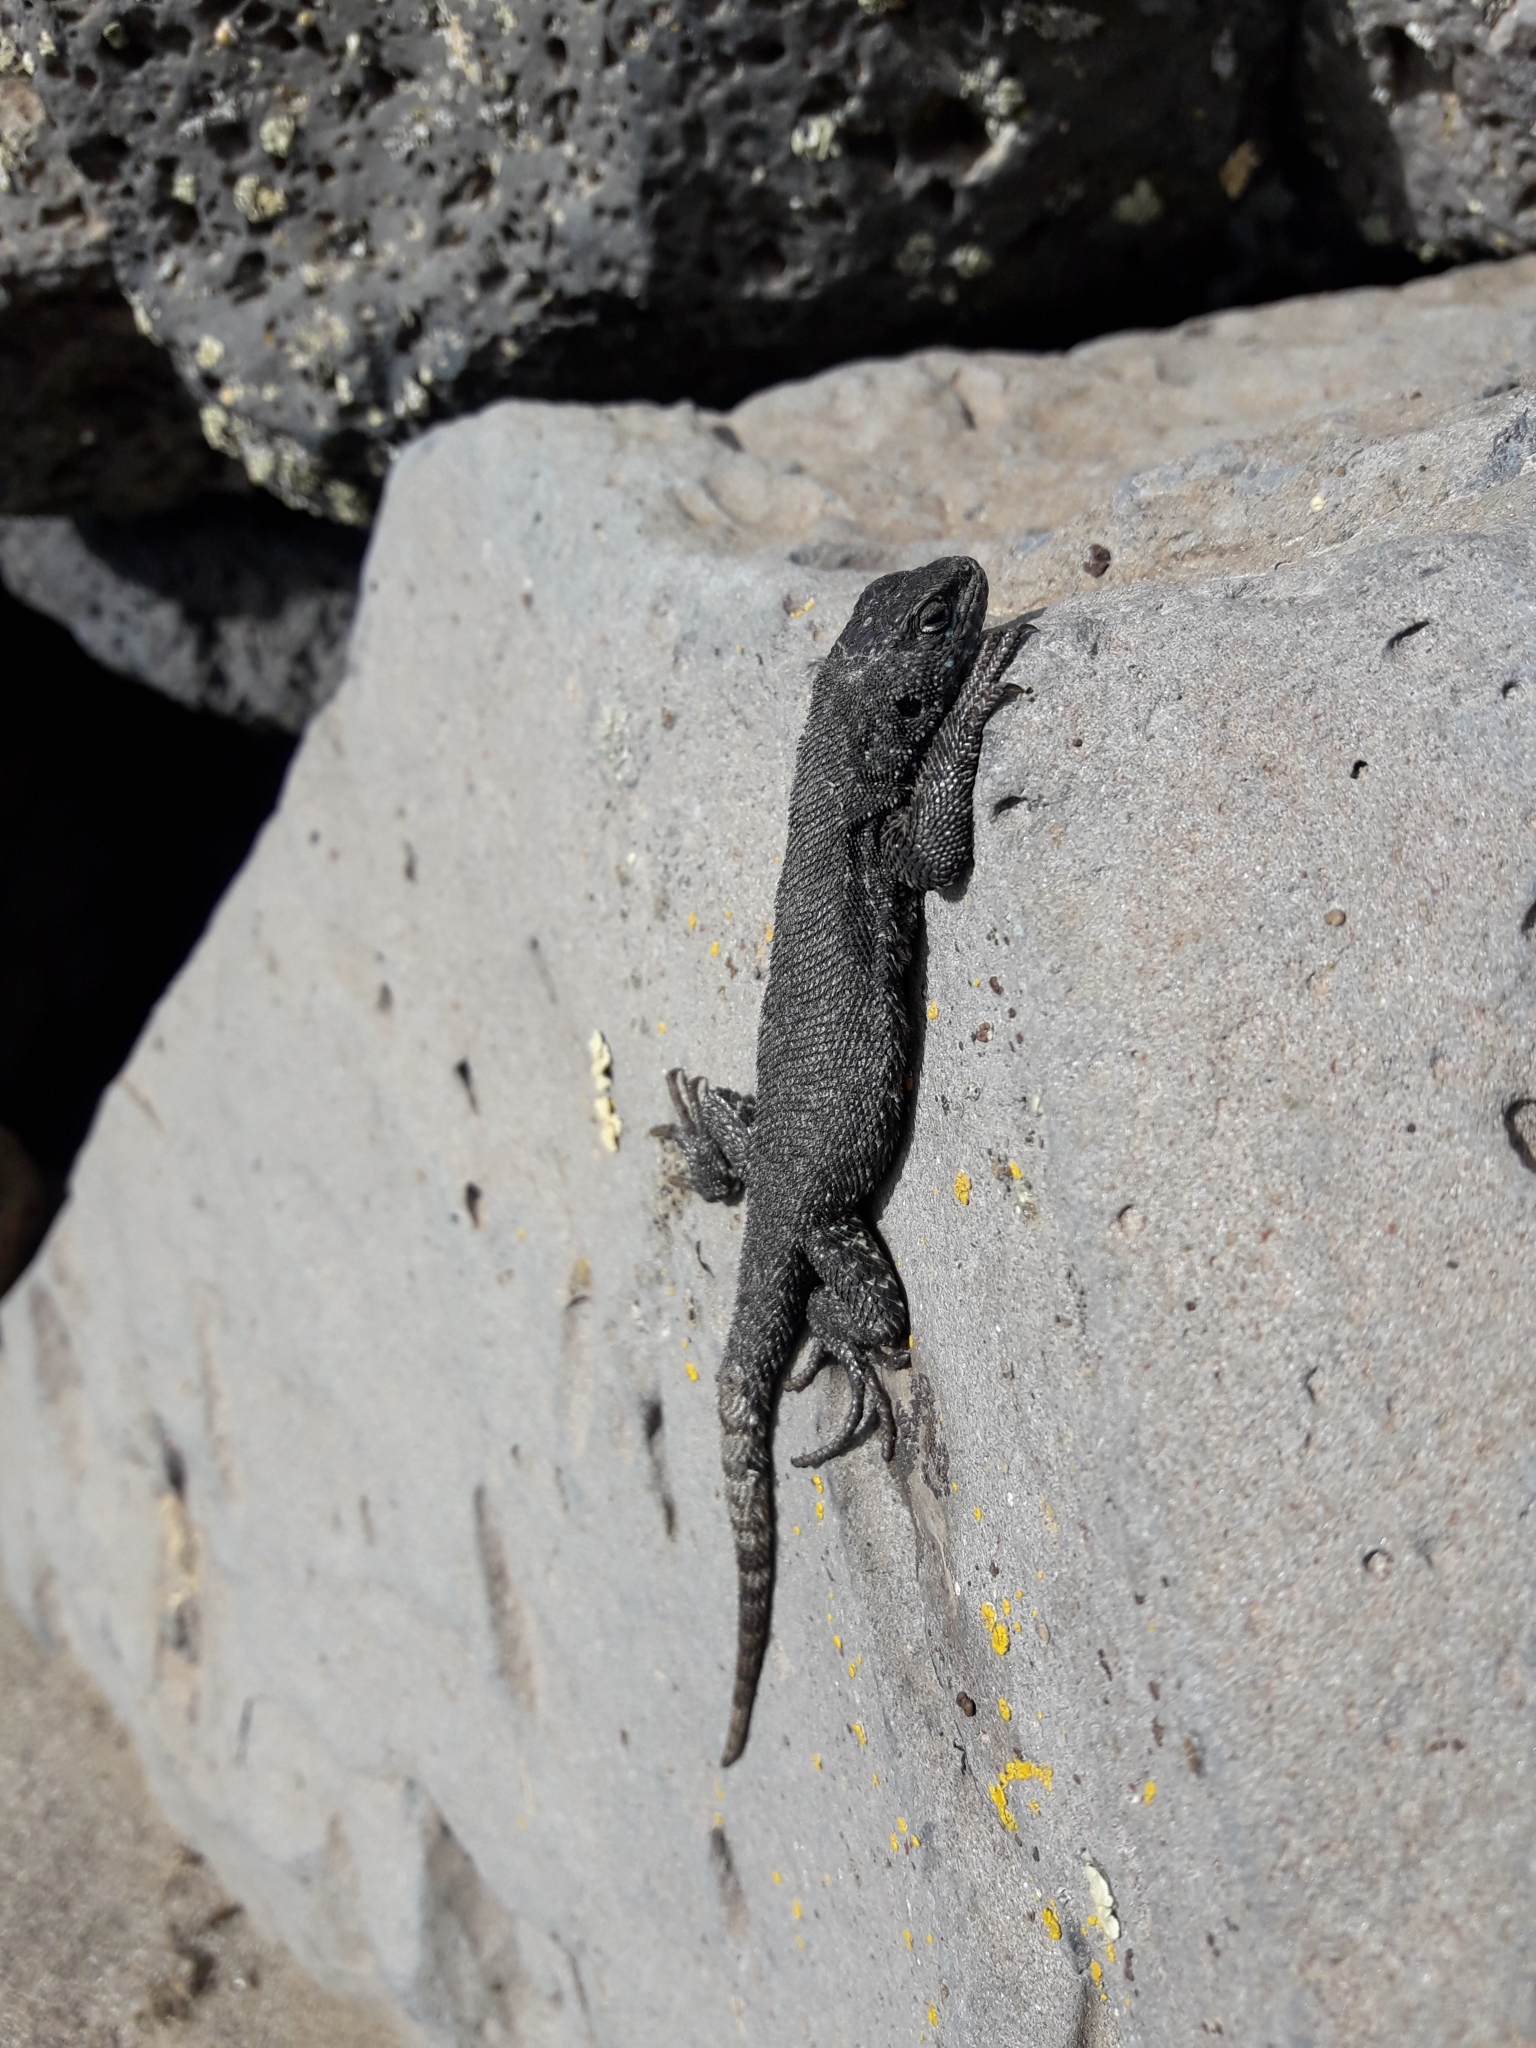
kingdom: Animalia
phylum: Chordata
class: Squamata
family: Liolaemidae
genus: Liolaemus
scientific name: Liolaemus silvanae
